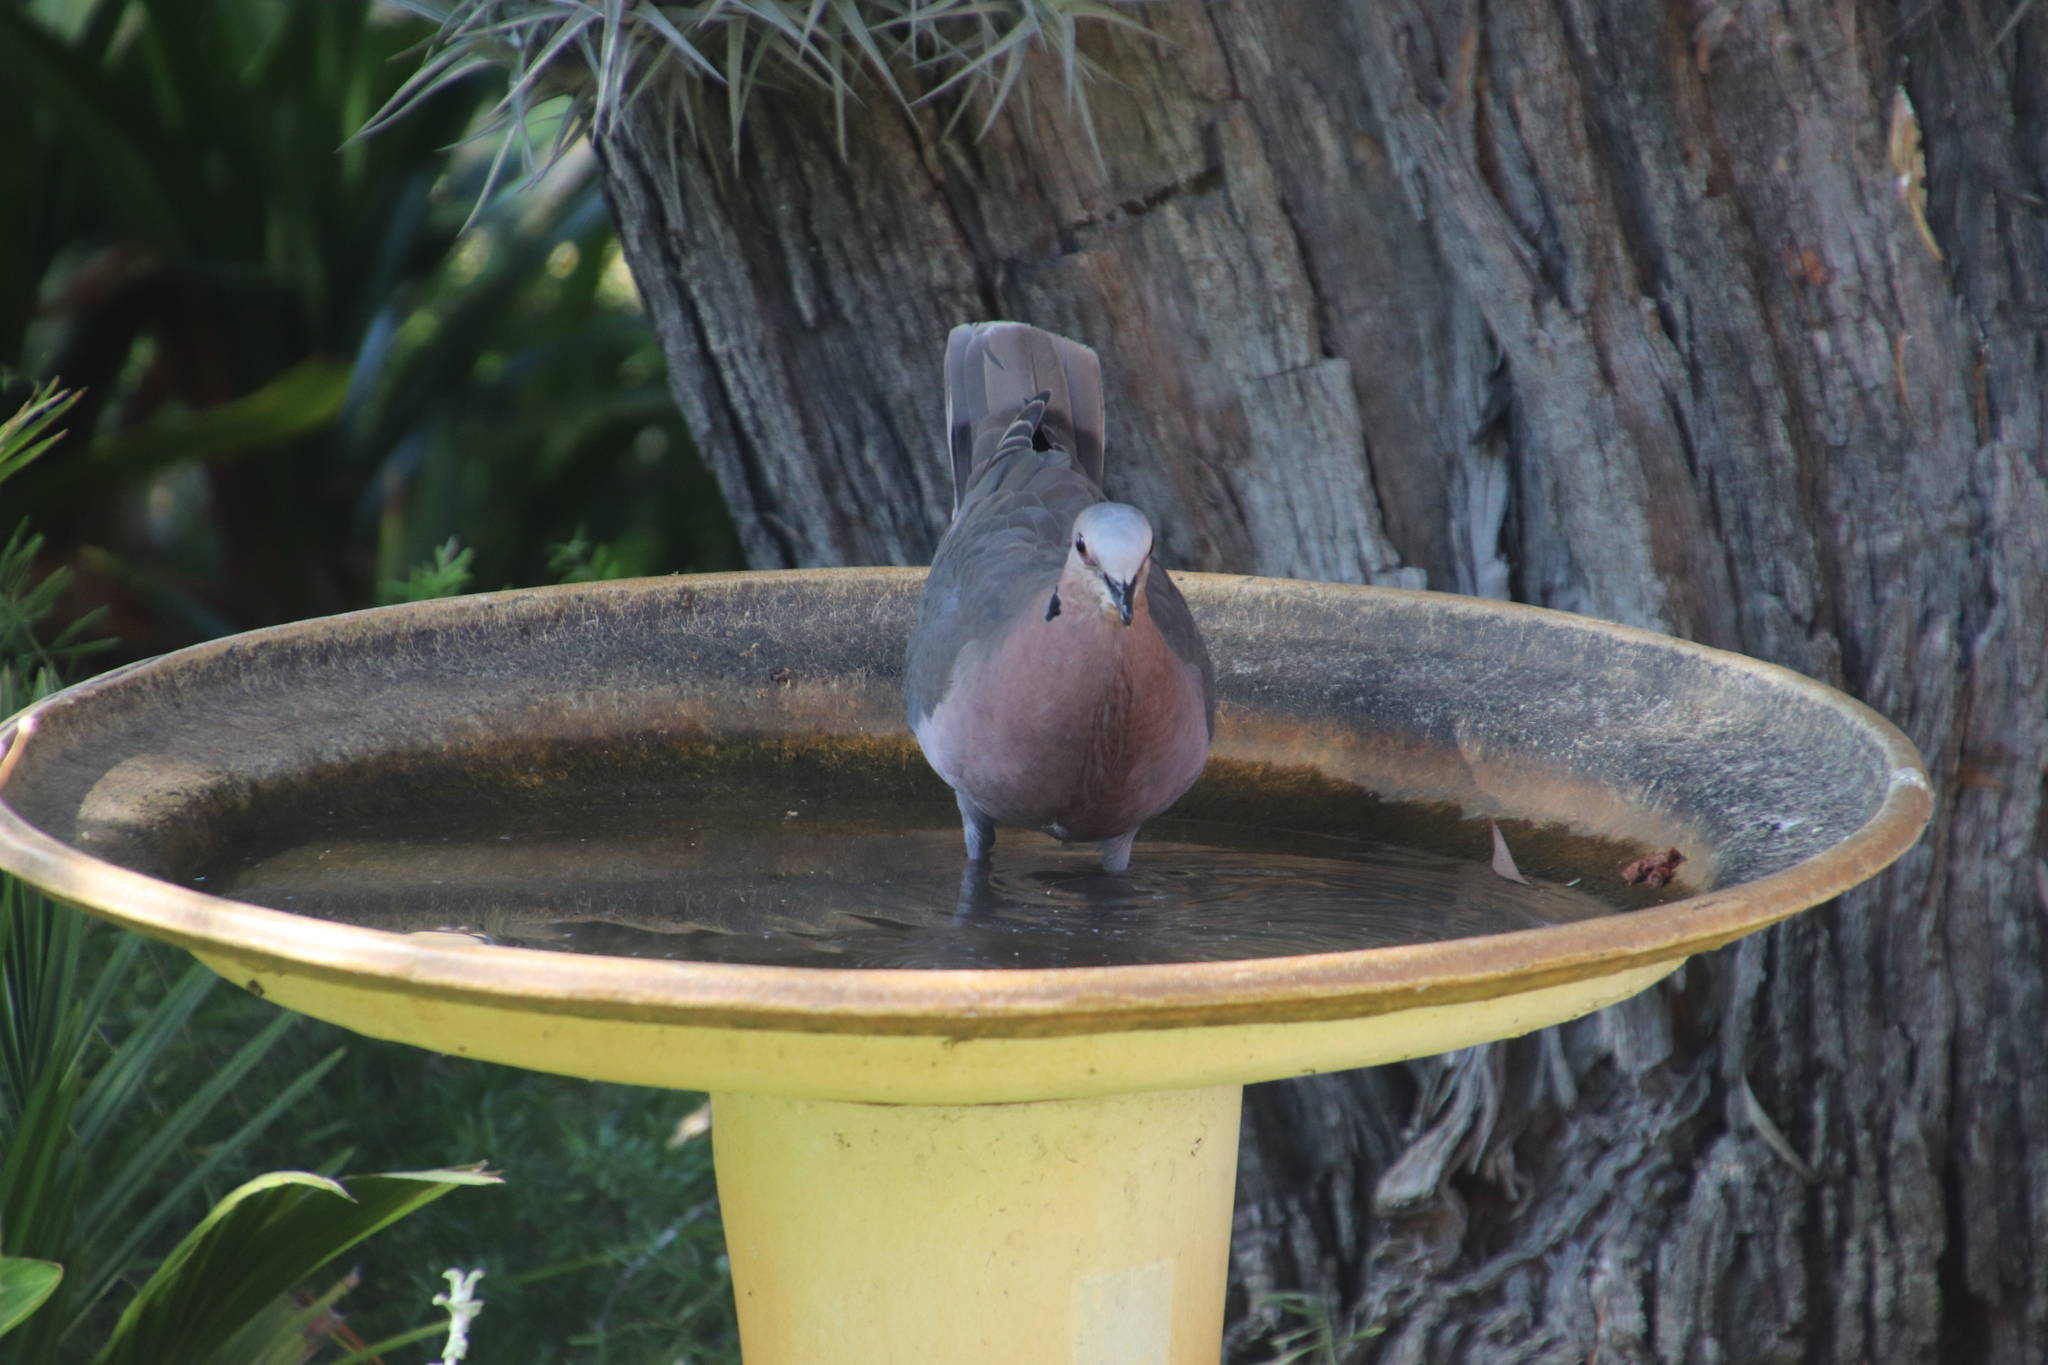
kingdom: Animalia
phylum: Chordata
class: Aves
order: Columbiformes
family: Columbidae
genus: Streptopelia
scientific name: Streptopelia semitorquata
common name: Red-eyed dove
